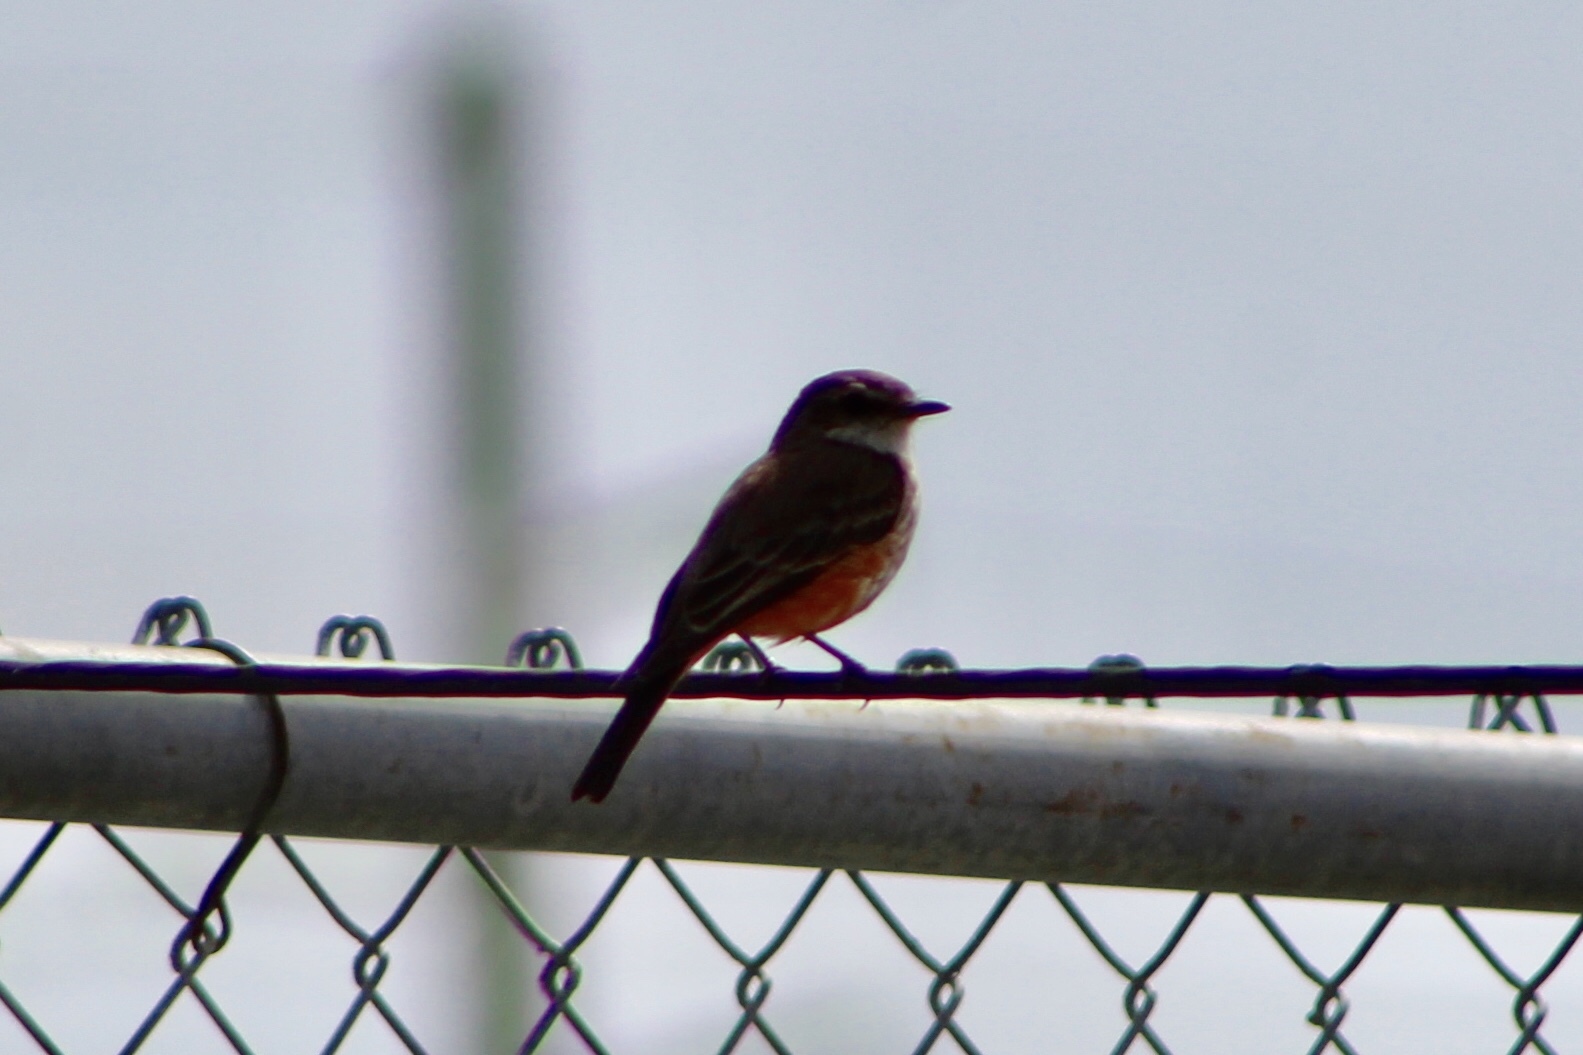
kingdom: Animalia
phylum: Chordata
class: Aves
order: Passeriformes
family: Tyrannidae
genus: Pyrocephalus
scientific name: Pyrocephalus rubinus
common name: Vermilion flycatcher
